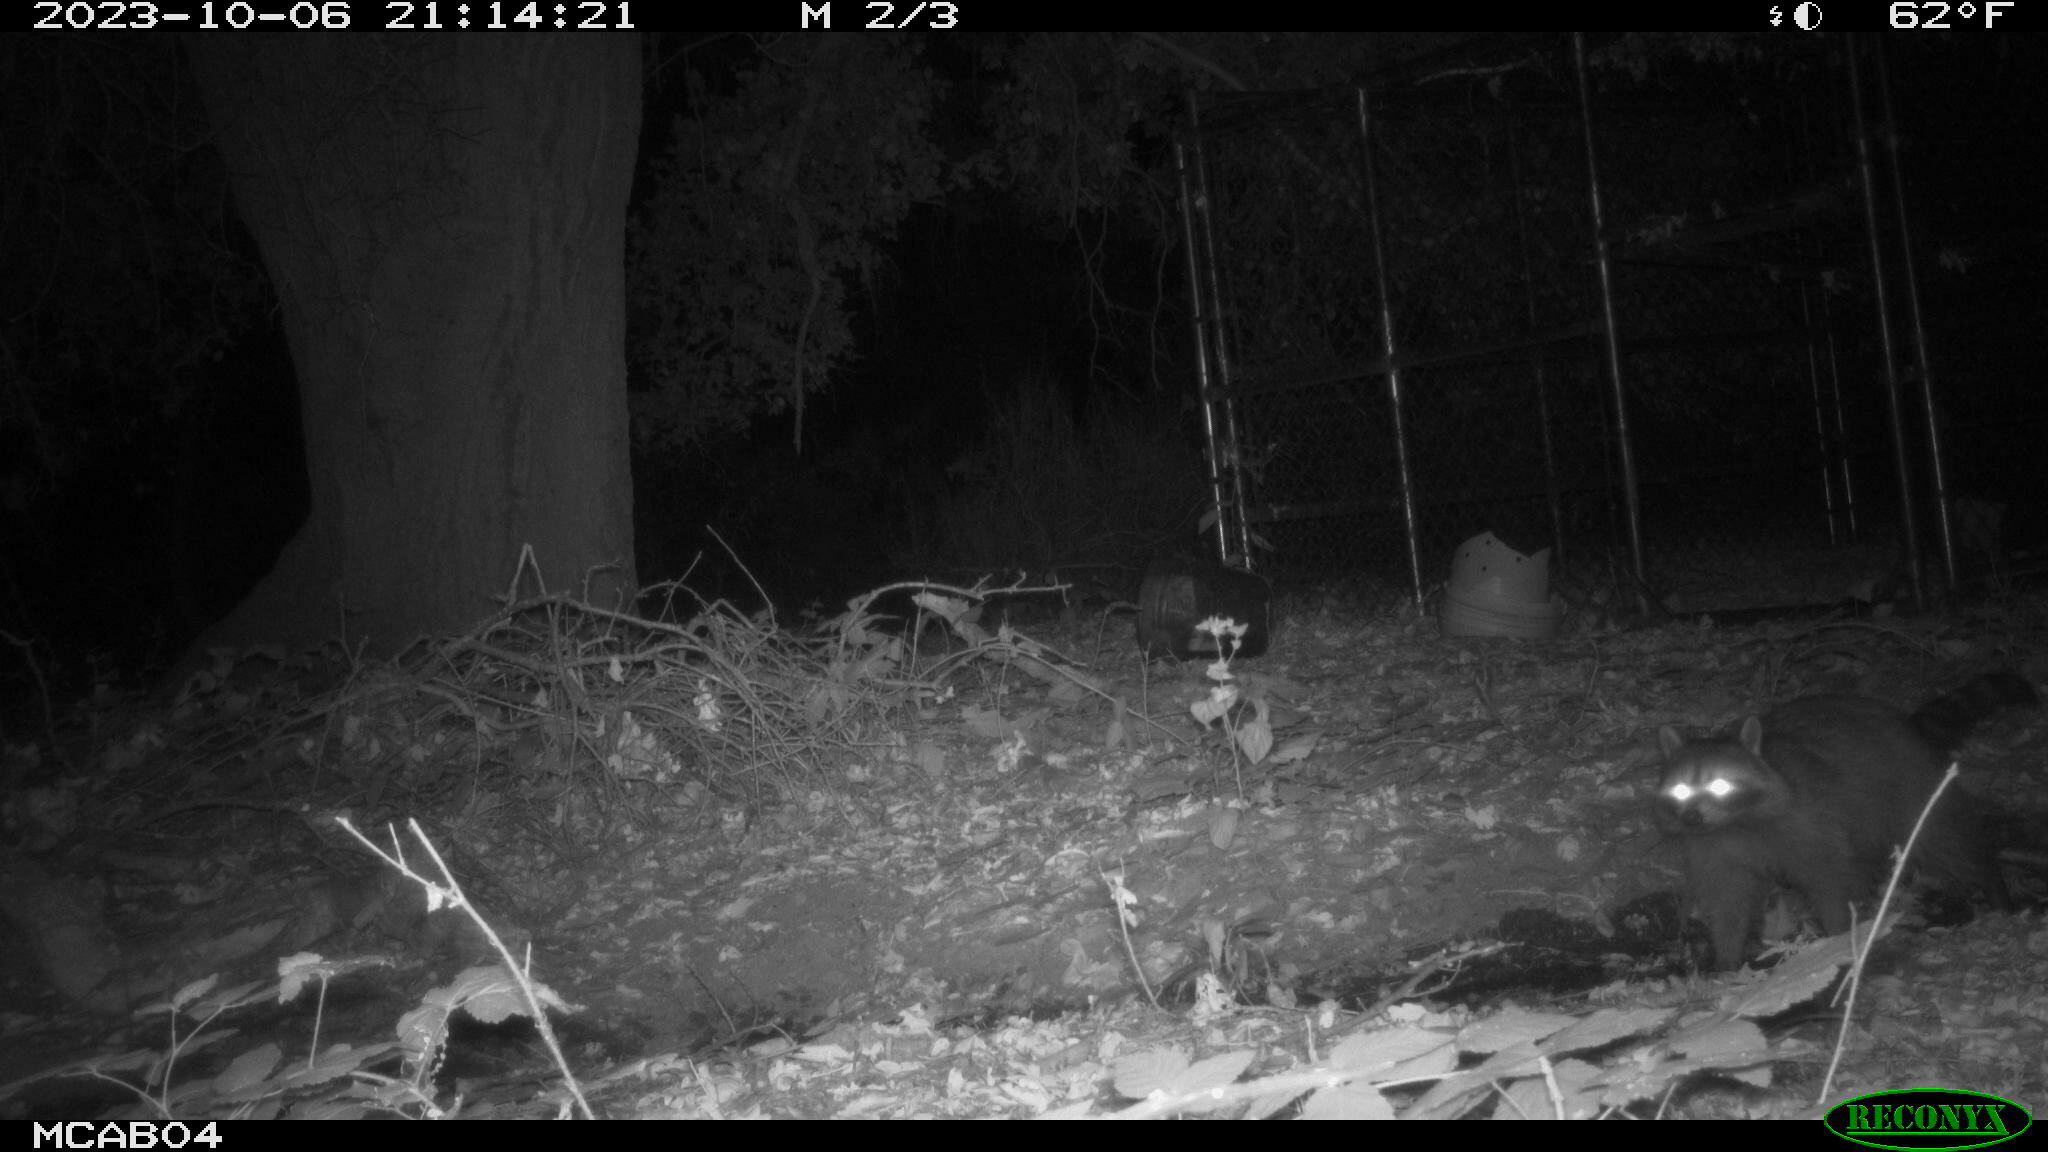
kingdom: Animalia
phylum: Chordata
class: Mammalia
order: Carnivora
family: Procyonidae
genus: Procyon
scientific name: Procyon lotor
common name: Raccoon
